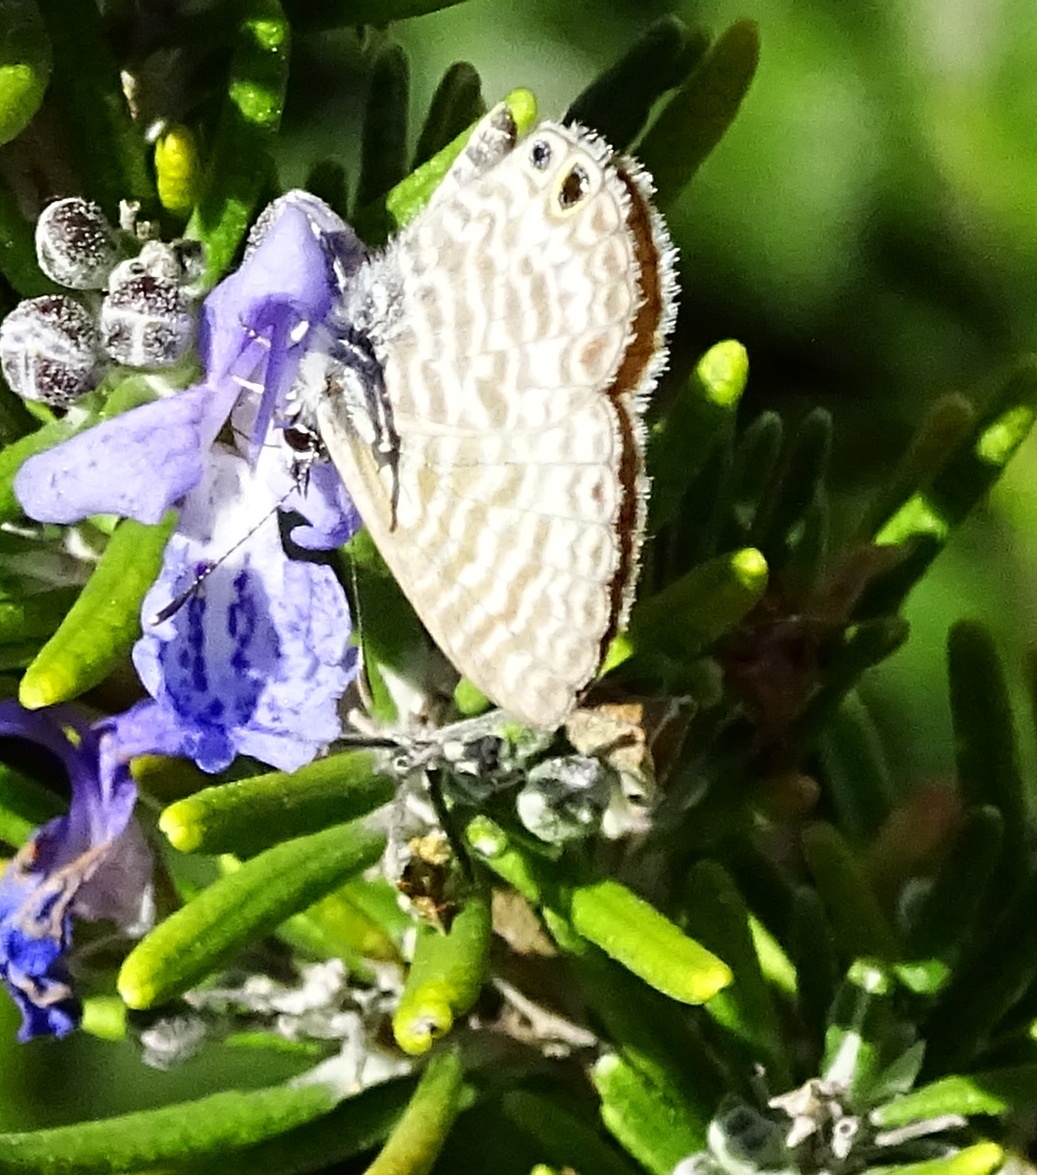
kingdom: Animalia
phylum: Arthropoda
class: Insecta
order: Lepidoptera
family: Lycaenidae
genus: Leptotes
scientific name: Leptotes marina
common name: Marine blue
